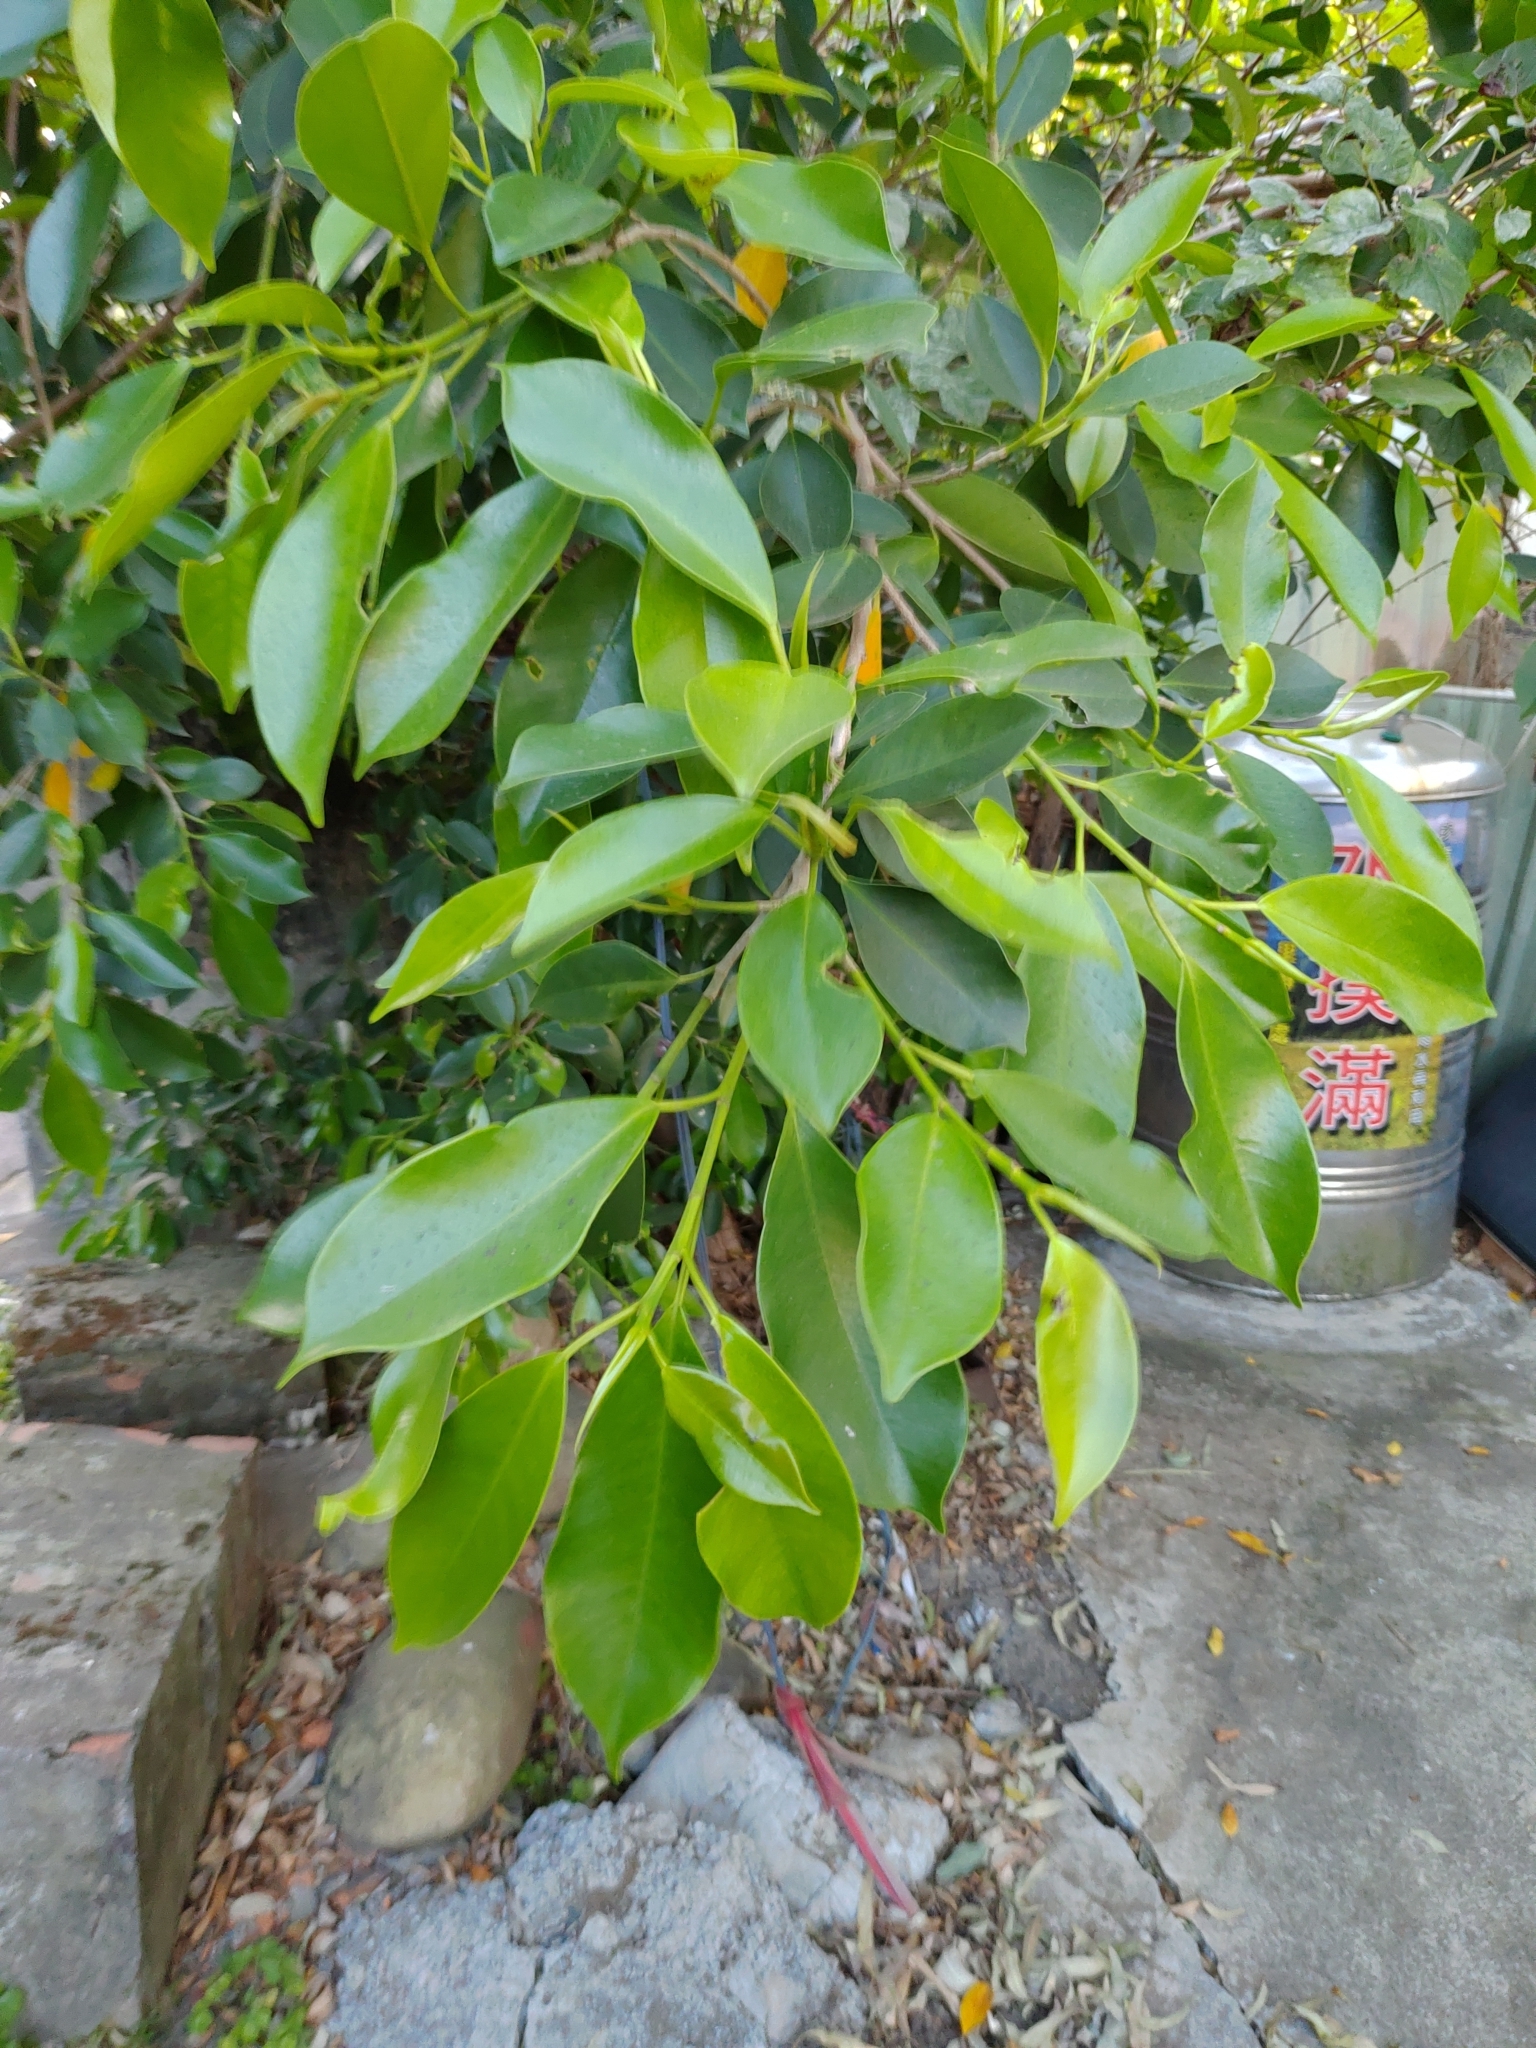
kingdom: Plantae
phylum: Tracheophyta
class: Magnoliopsida
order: Rosales
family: Moraceae
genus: Ficus
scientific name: Ficus microcarpa
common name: Chinese banyan
